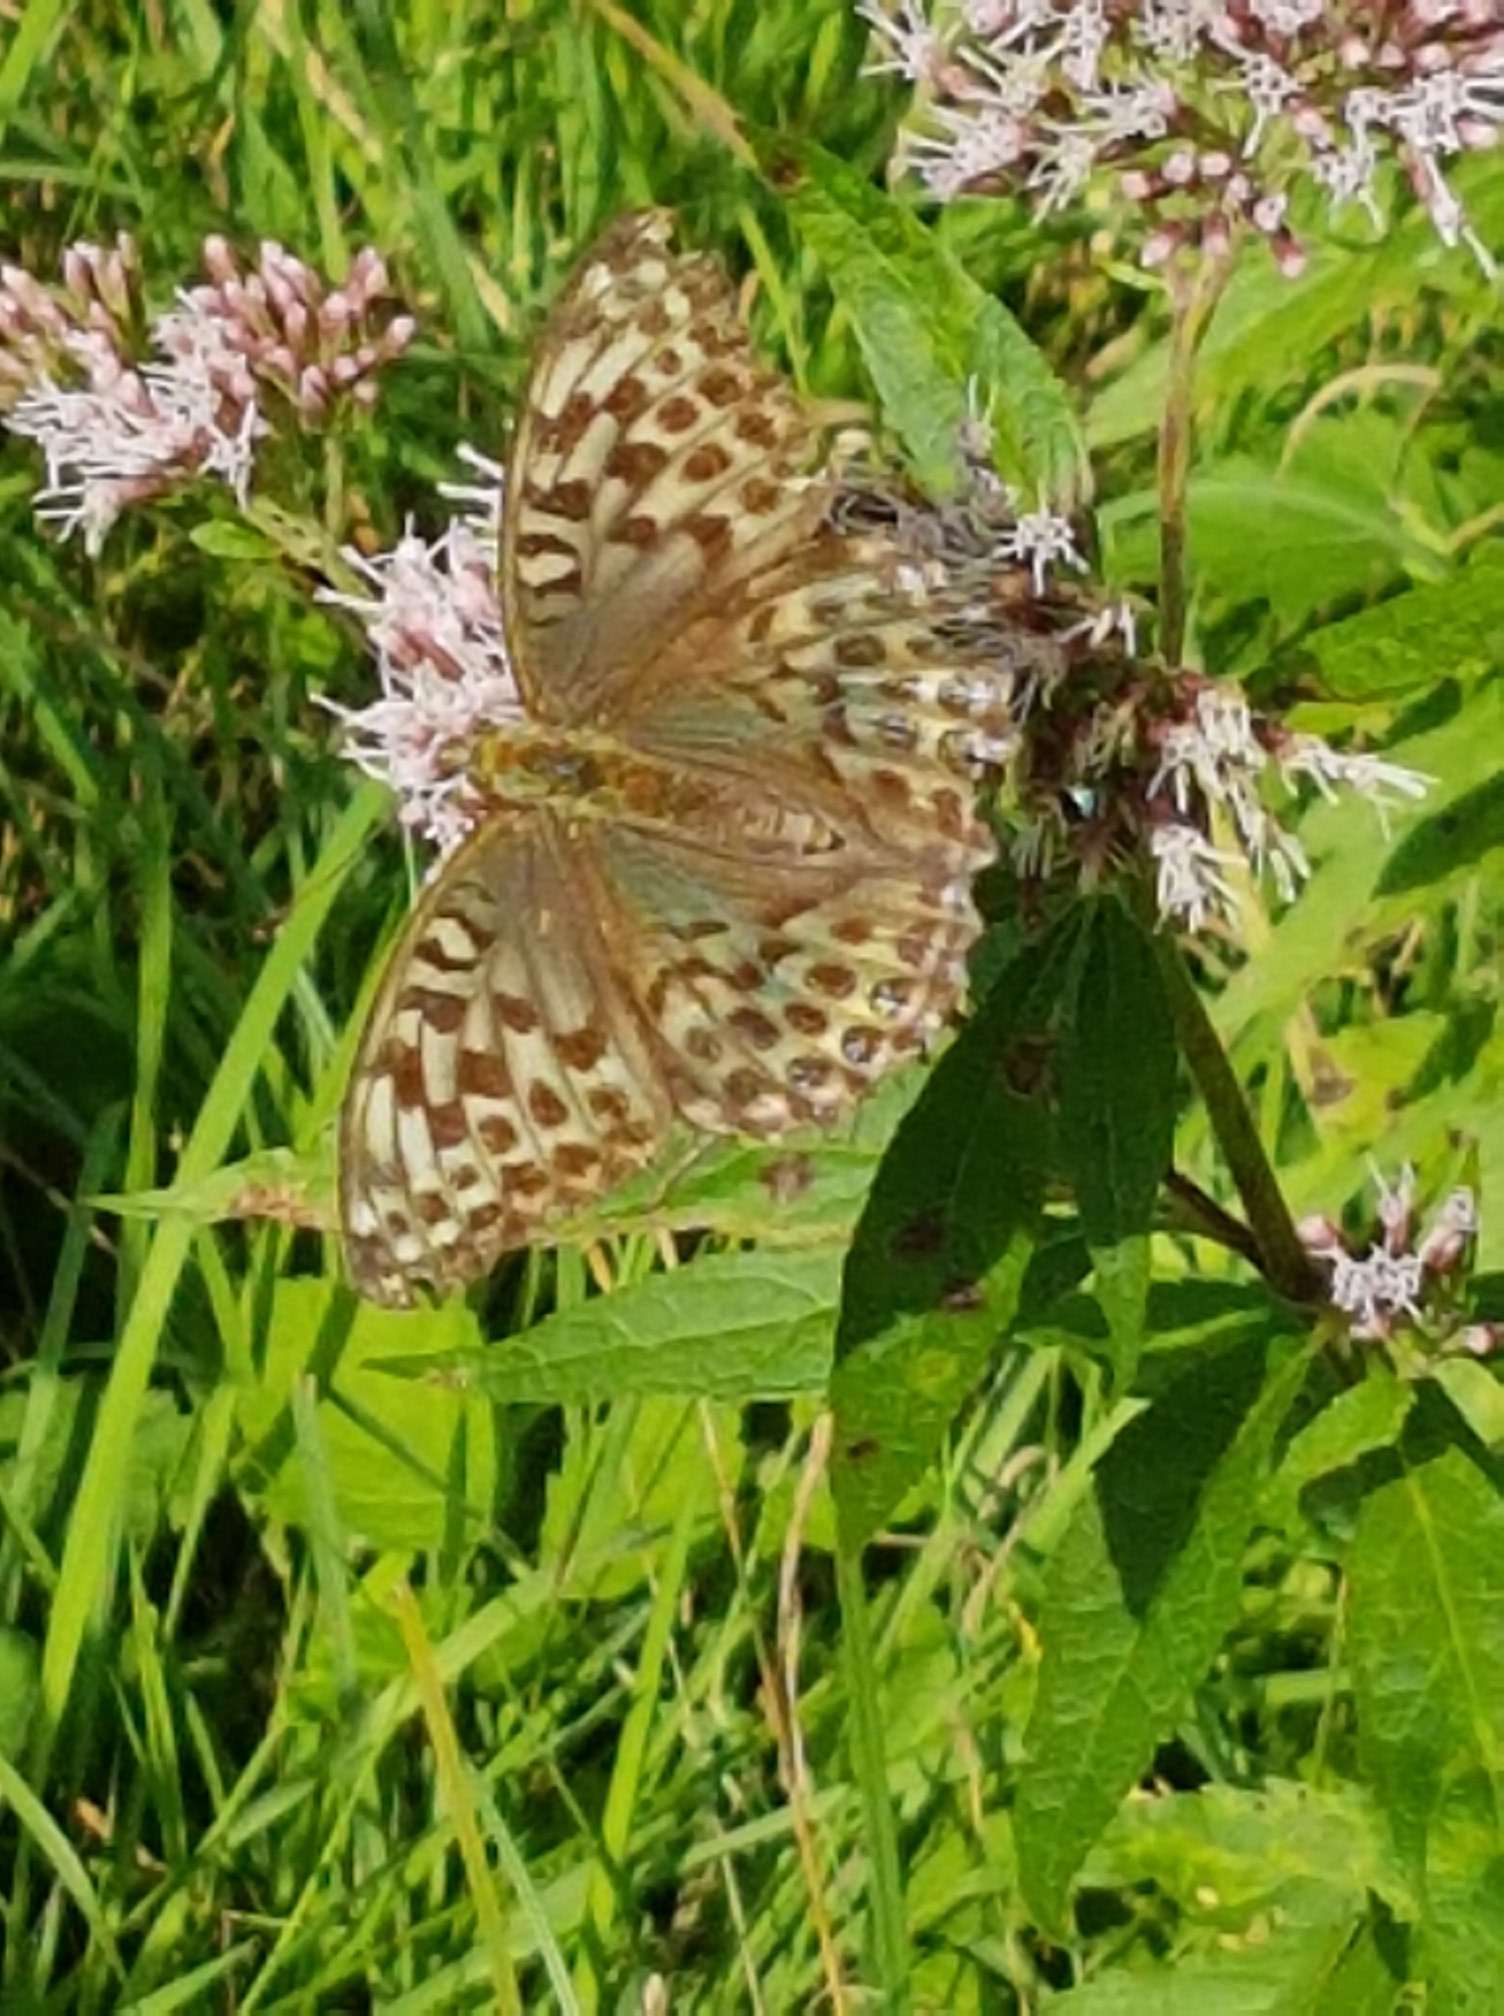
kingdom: Animalia
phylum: Arthropoda
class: Insecta
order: Lepidoptera
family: Nymphalidae
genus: Argynnis
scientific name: Argynnis paphia
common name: Silver-washed fritillary
